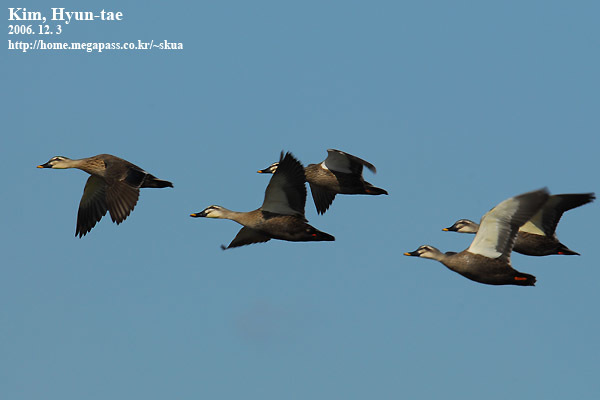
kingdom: Animalia
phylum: Chordata
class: Aves
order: Anseriformes
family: Anatidae
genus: Anas
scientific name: Anas zonorhyncha
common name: Eastern spot-billed duck
